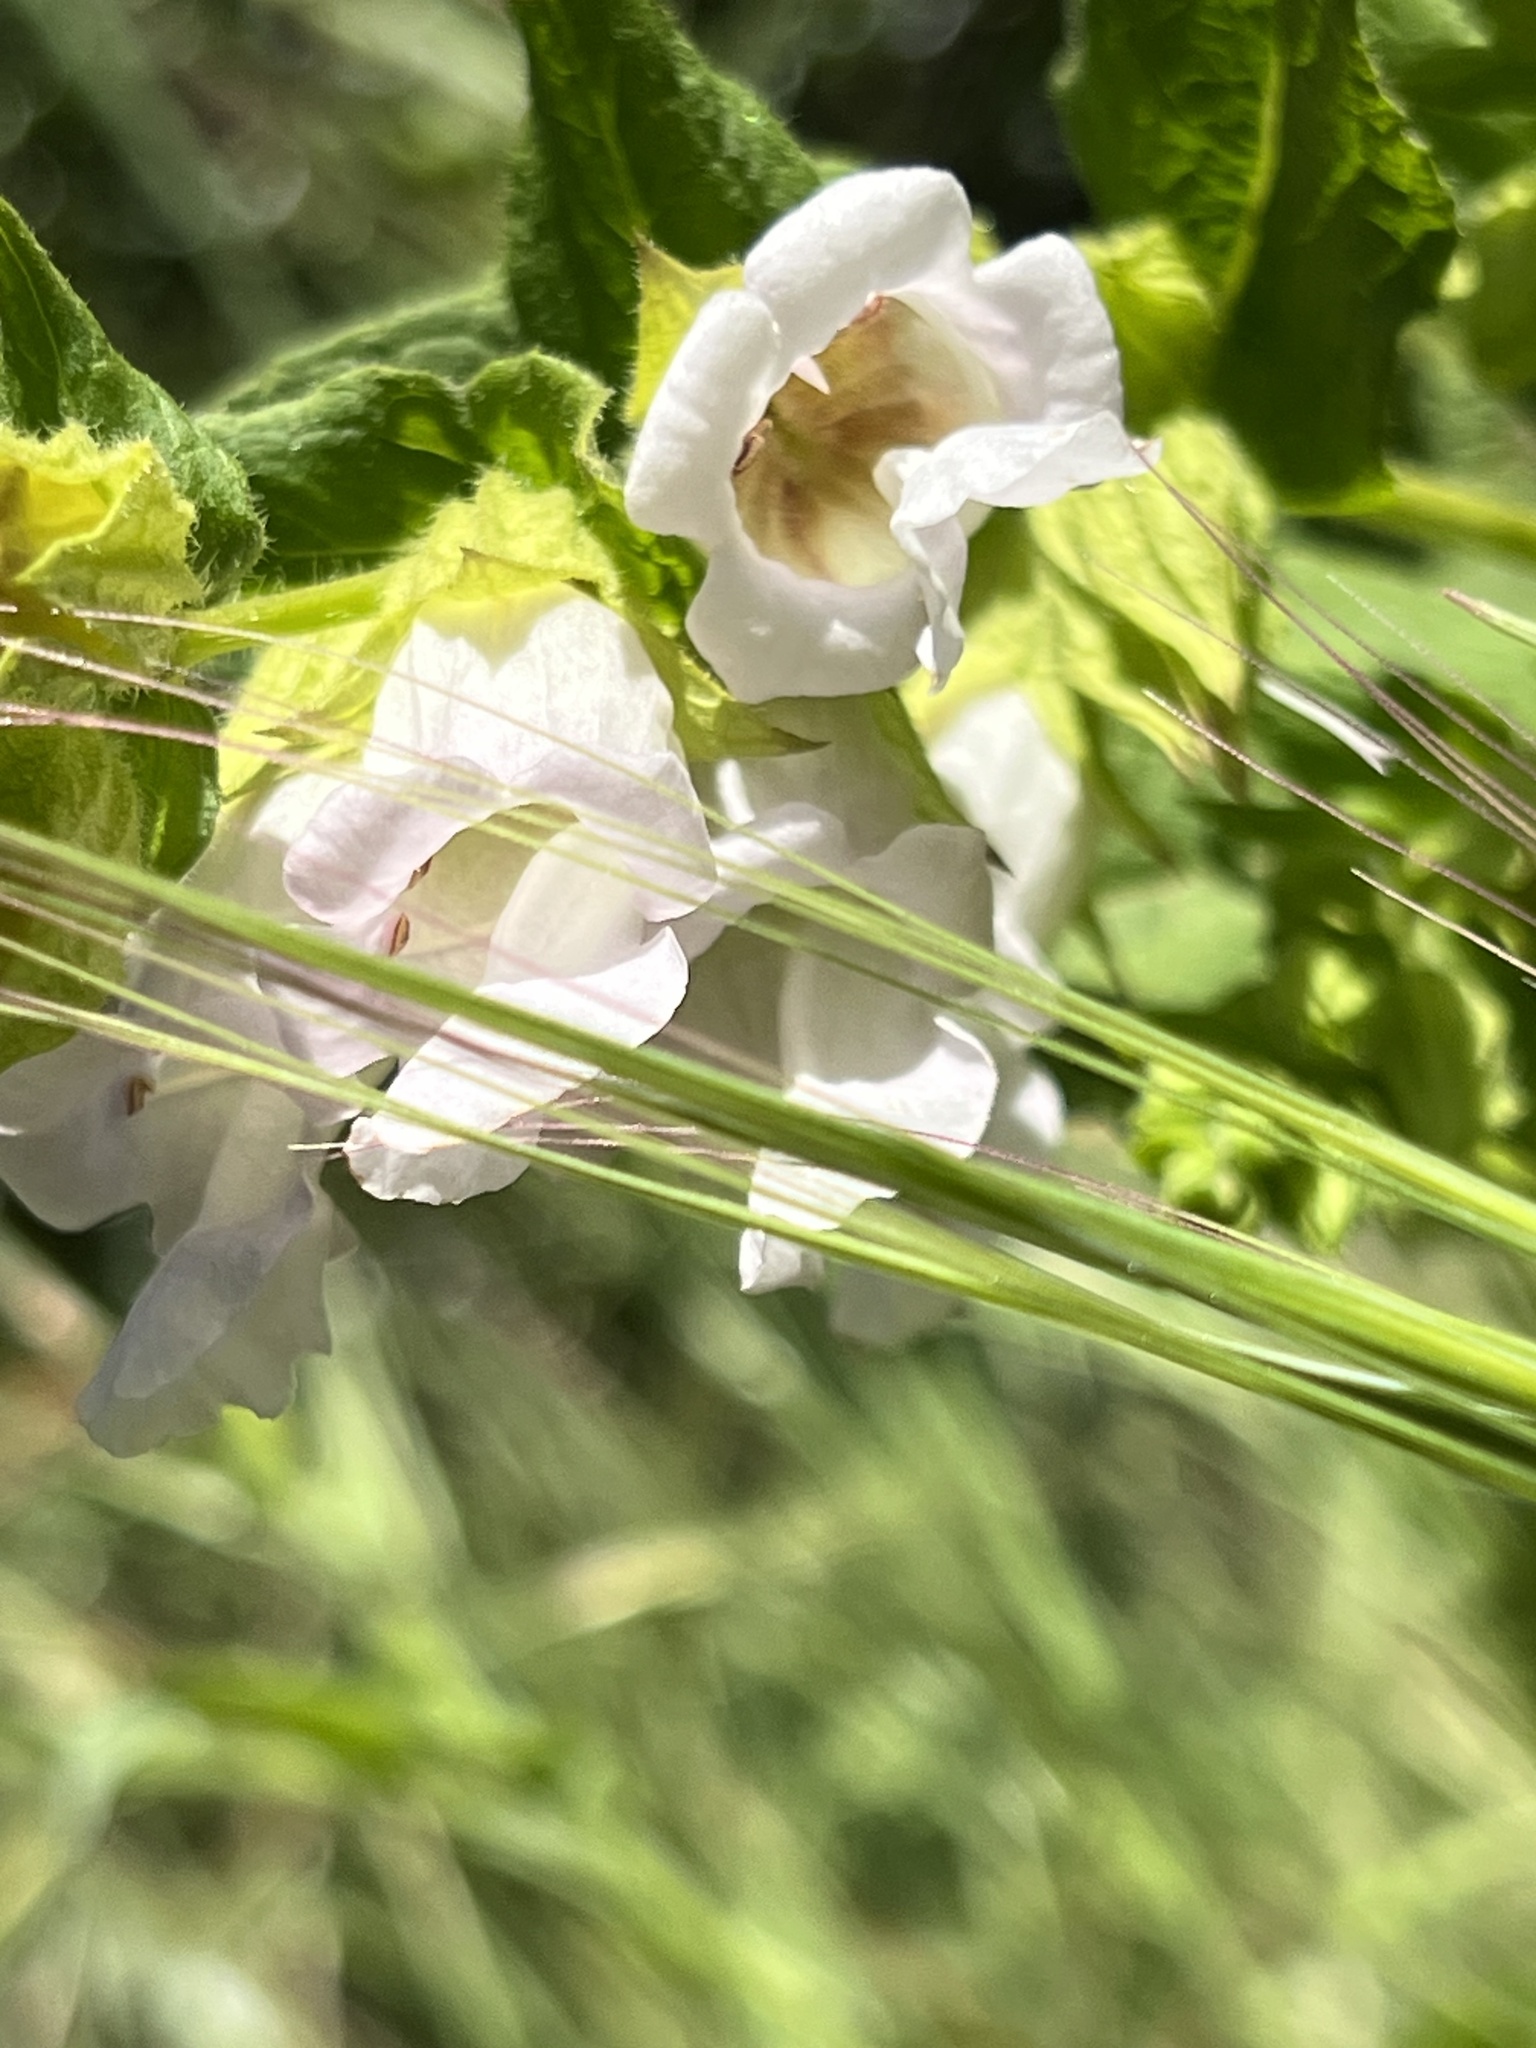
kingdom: Plantae
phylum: Tracheophyta
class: Magnoliopsida
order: Lamiales
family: Lamiaceae
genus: Lepechinia
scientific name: Lepechinia calycina
